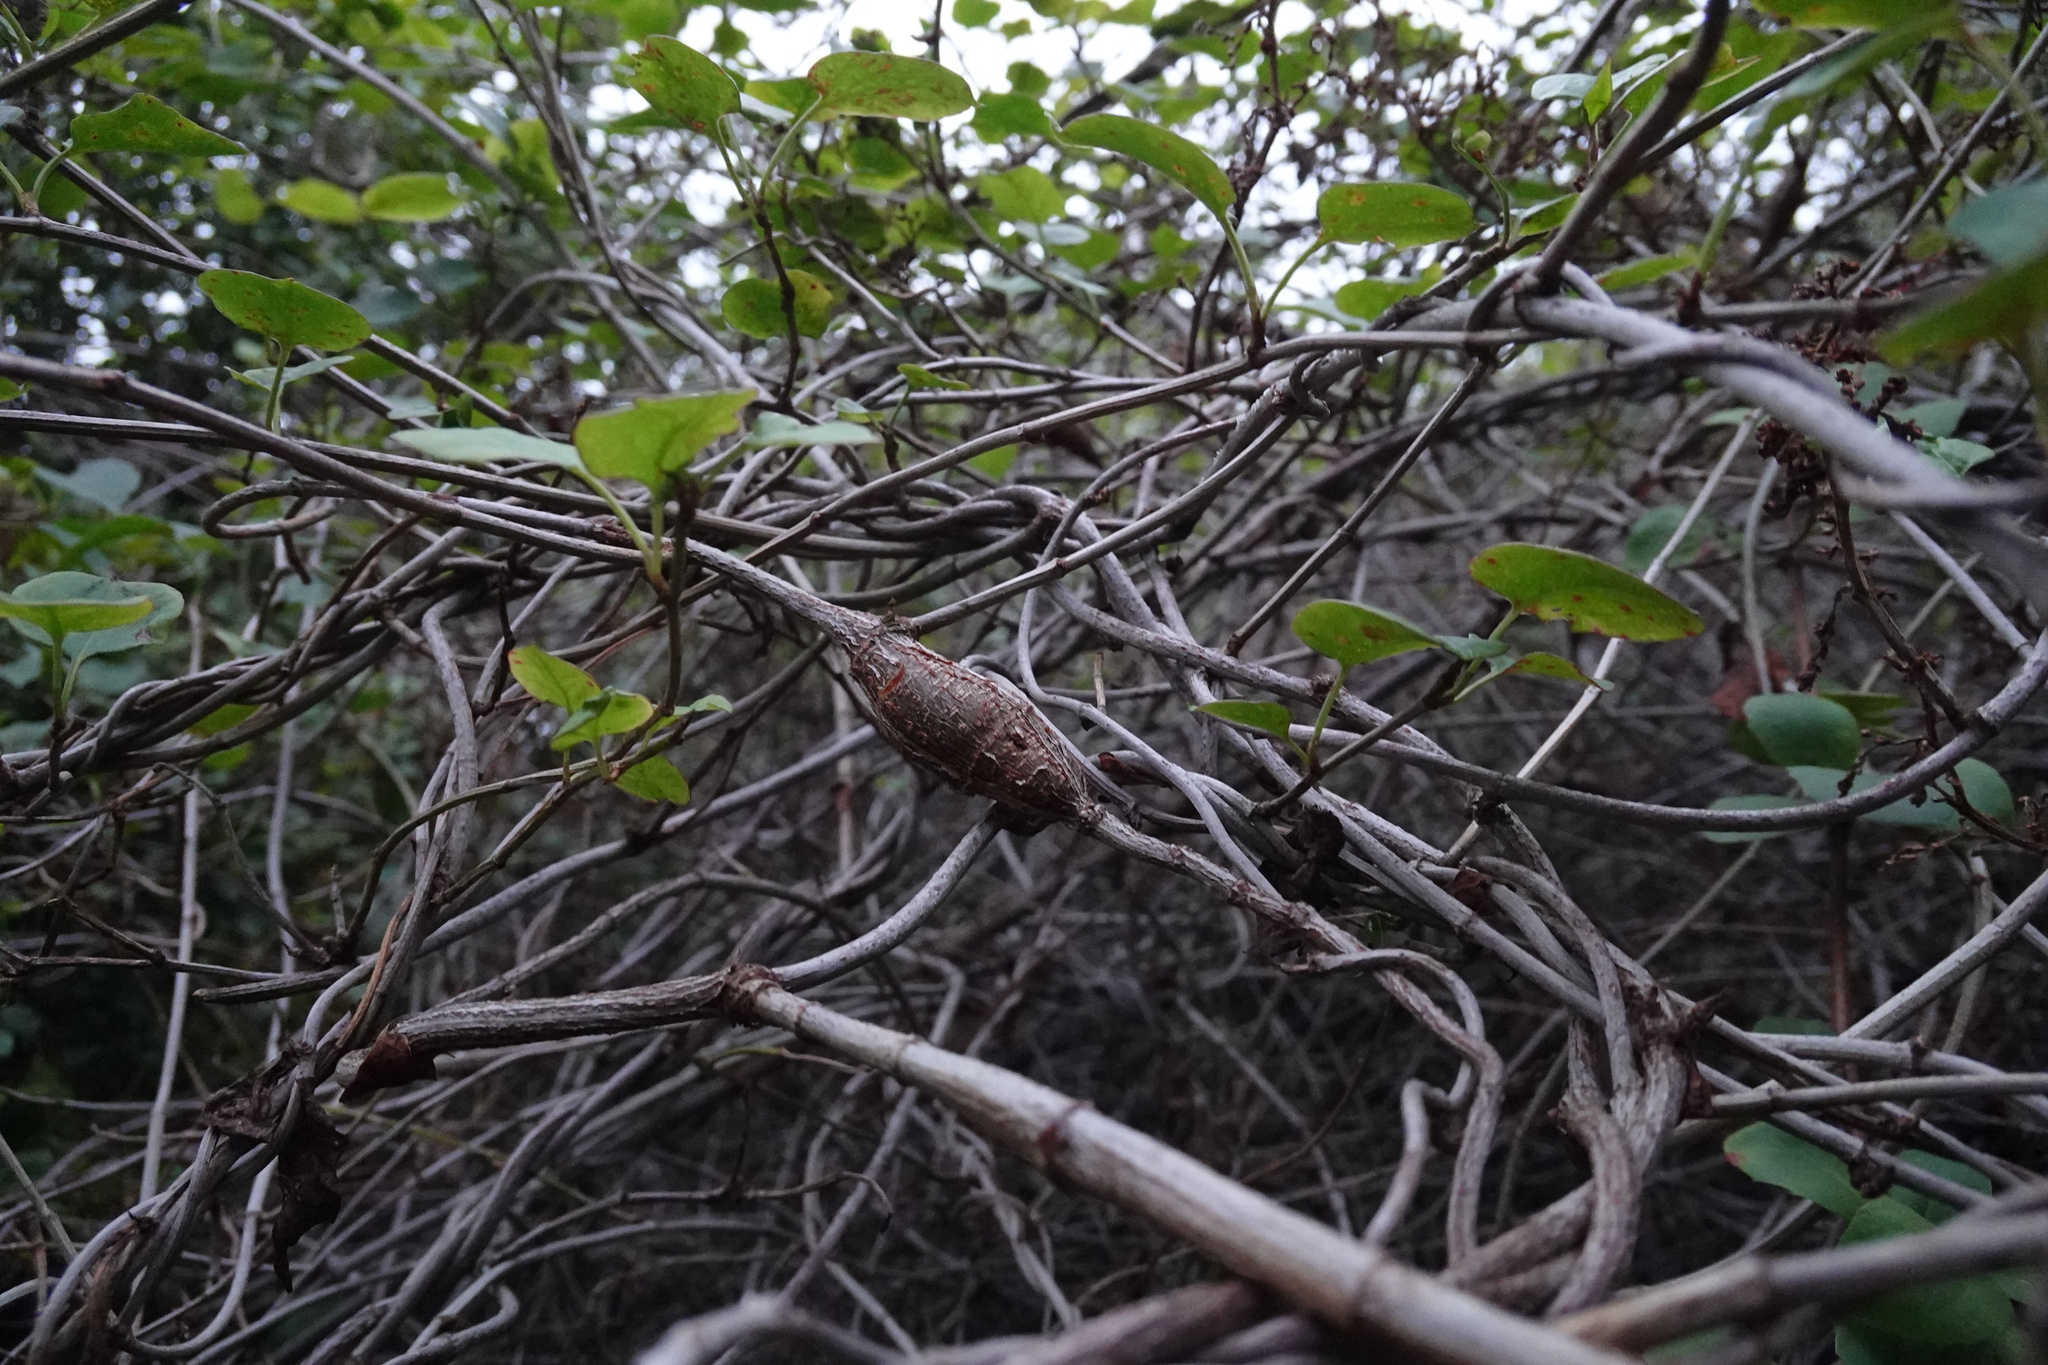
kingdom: Animalia
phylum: Arthropoda
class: Insecta
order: Lepidoptera
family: Thyrididae
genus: Morova
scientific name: Morova subfasciata
